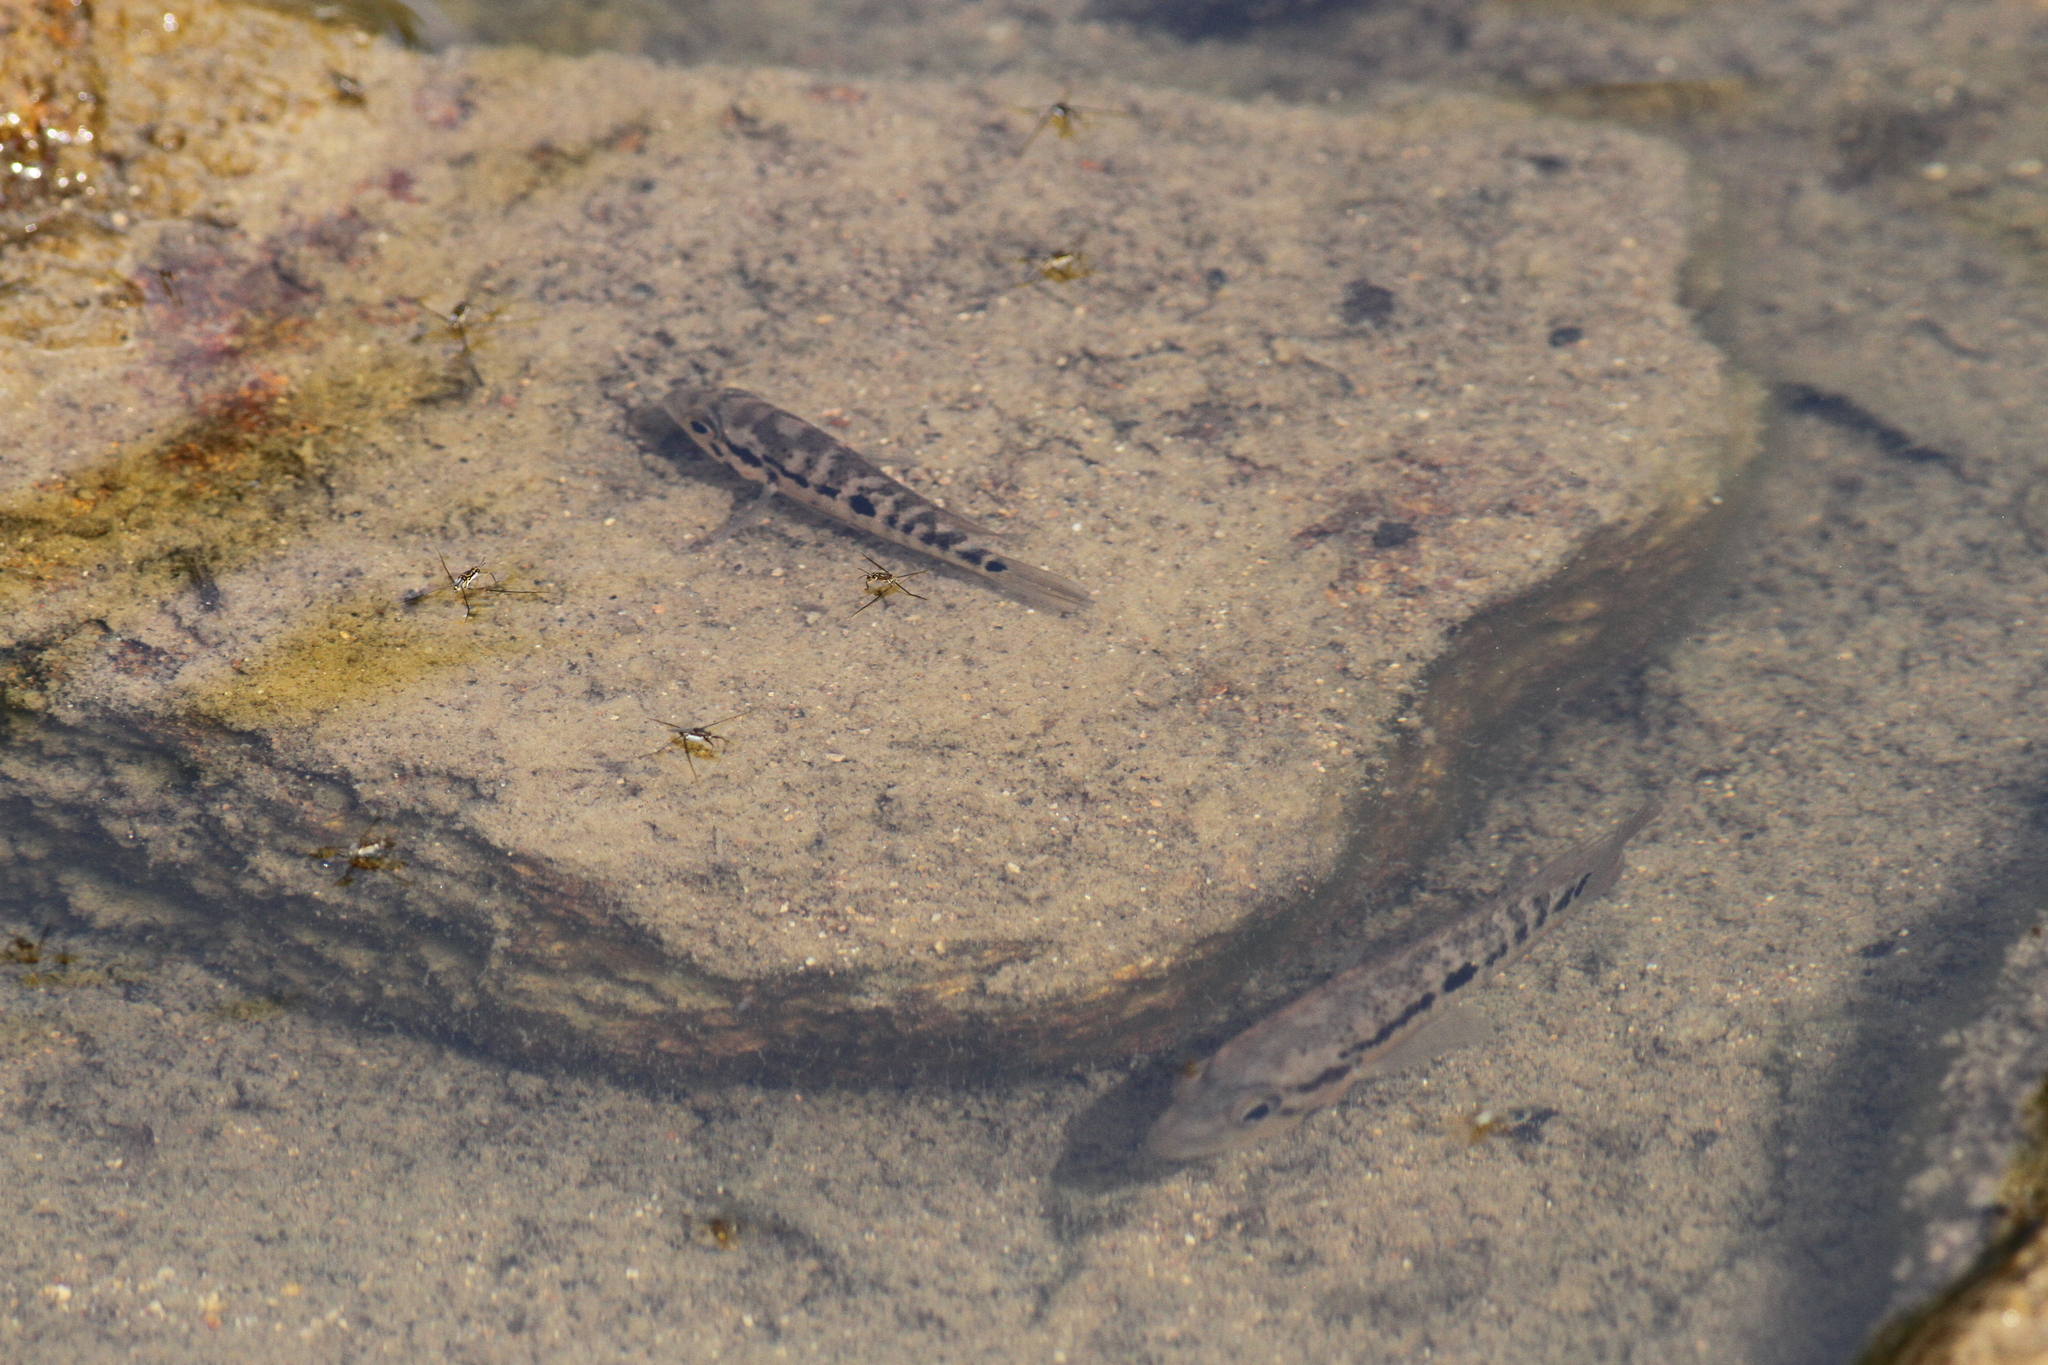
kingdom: Animalia
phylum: Chordata
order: Perciformes
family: Cichlidae
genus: Parachromis
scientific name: Parachromis motaguensis
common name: False yellowjacket cichlid
